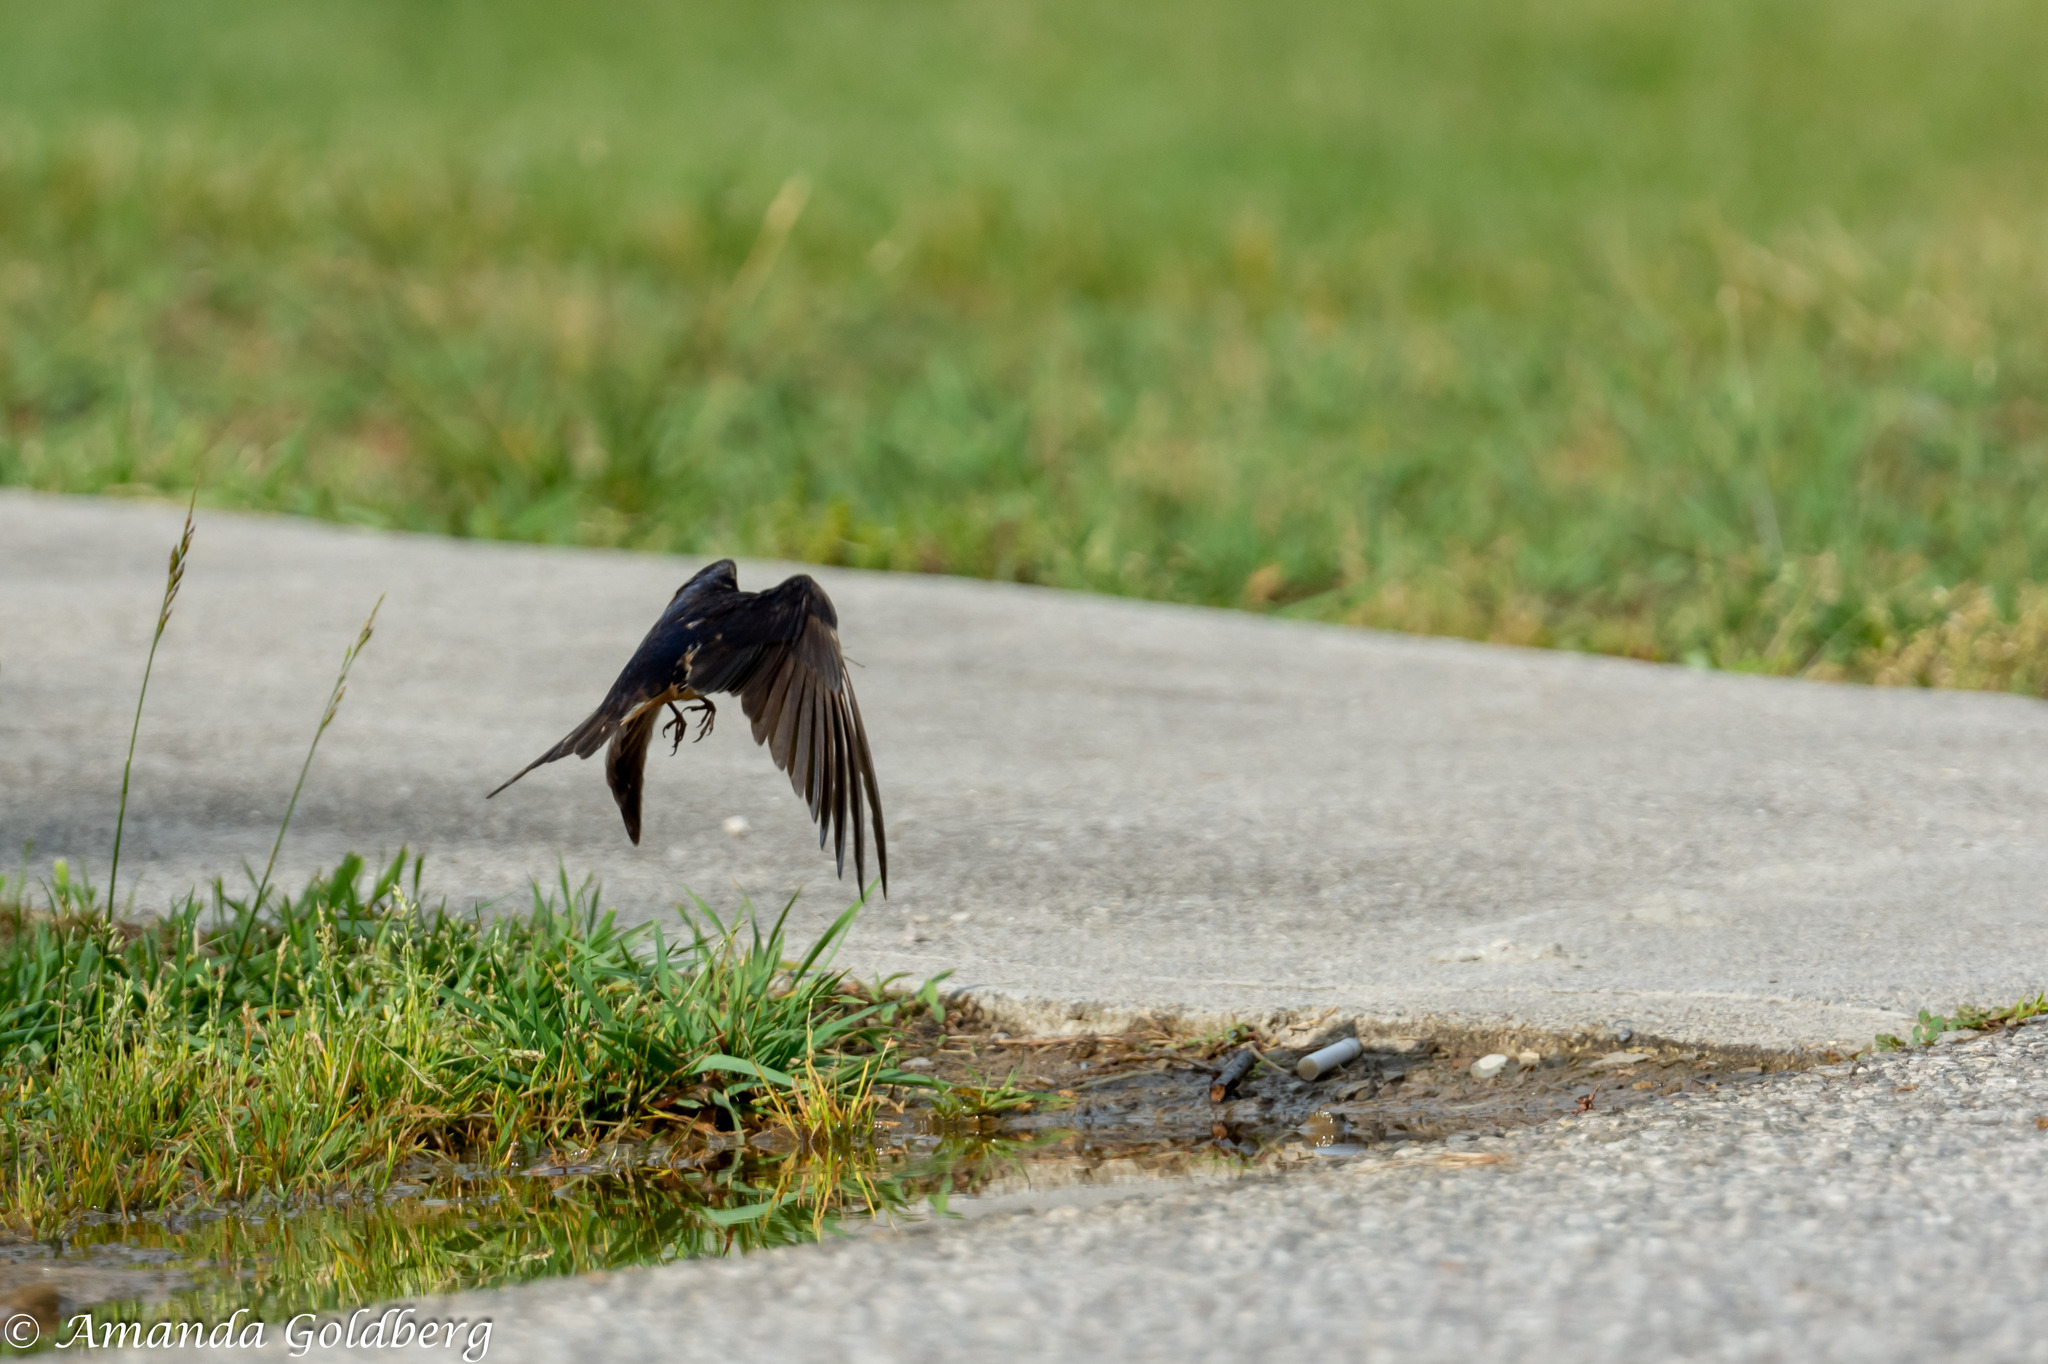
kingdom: Animalia
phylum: Chordata
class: Aves
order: Passeriformes
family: Hirundinidae
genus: Hirundo
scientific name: Hirundo rustica
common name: Barn swallow
